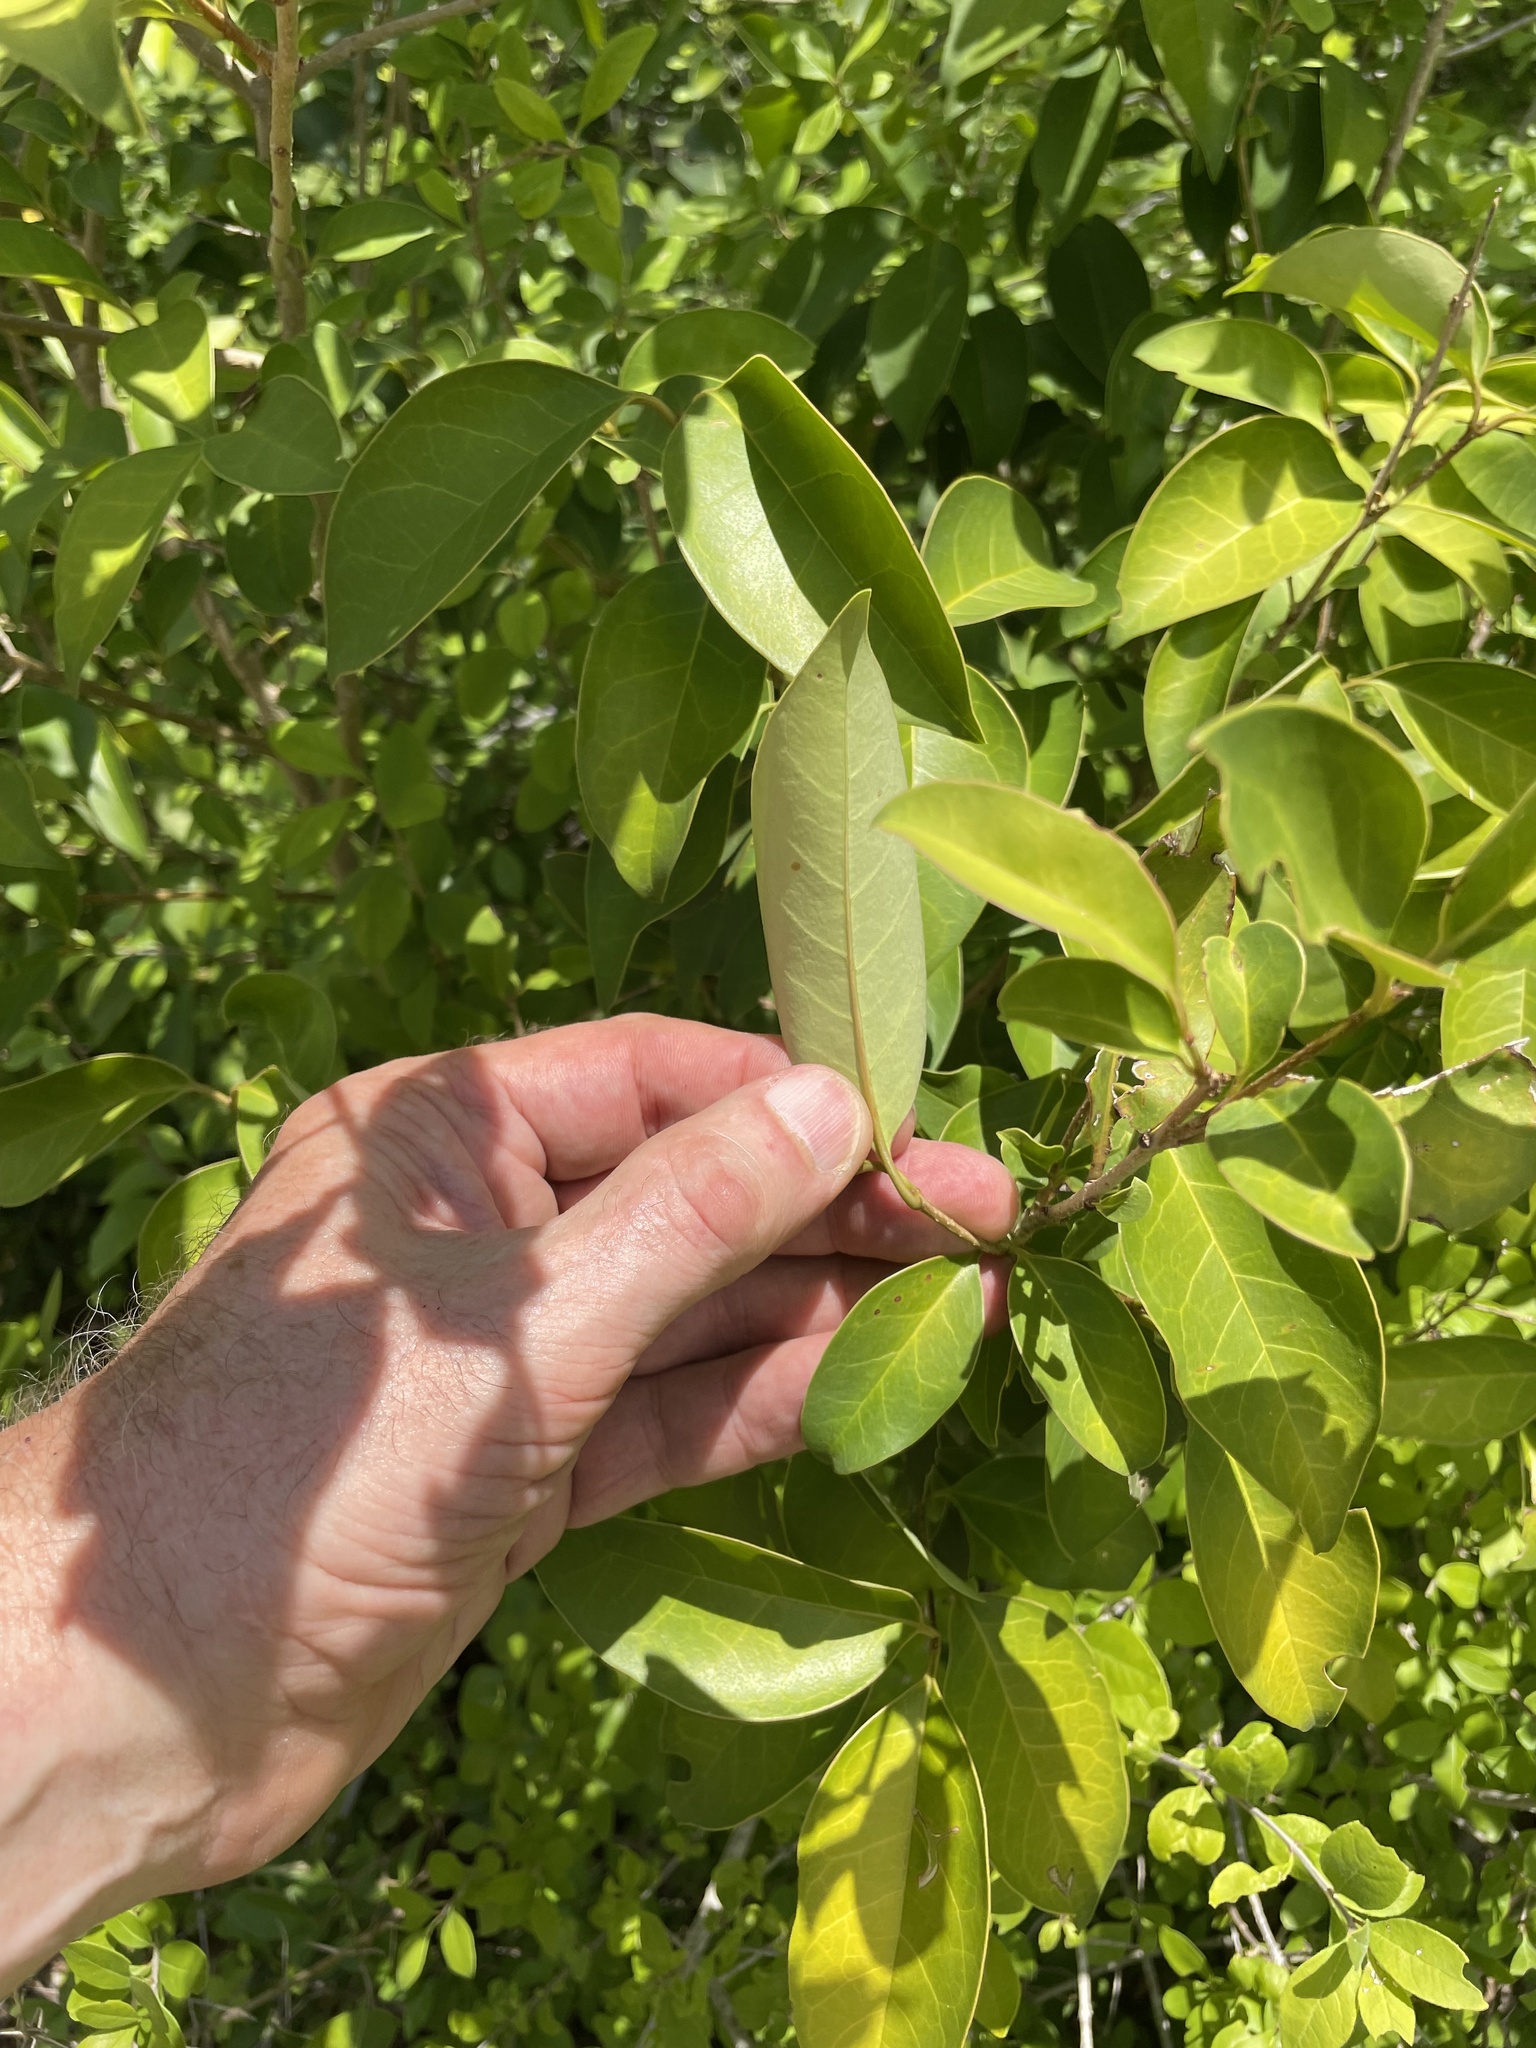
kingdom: Plantae
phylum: Tracheophyta
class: Magnoliopsida
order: Lamiales
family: Oleaceae
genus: Ligustrum
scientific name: Ligustrum lucidum
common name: Glossy privet
